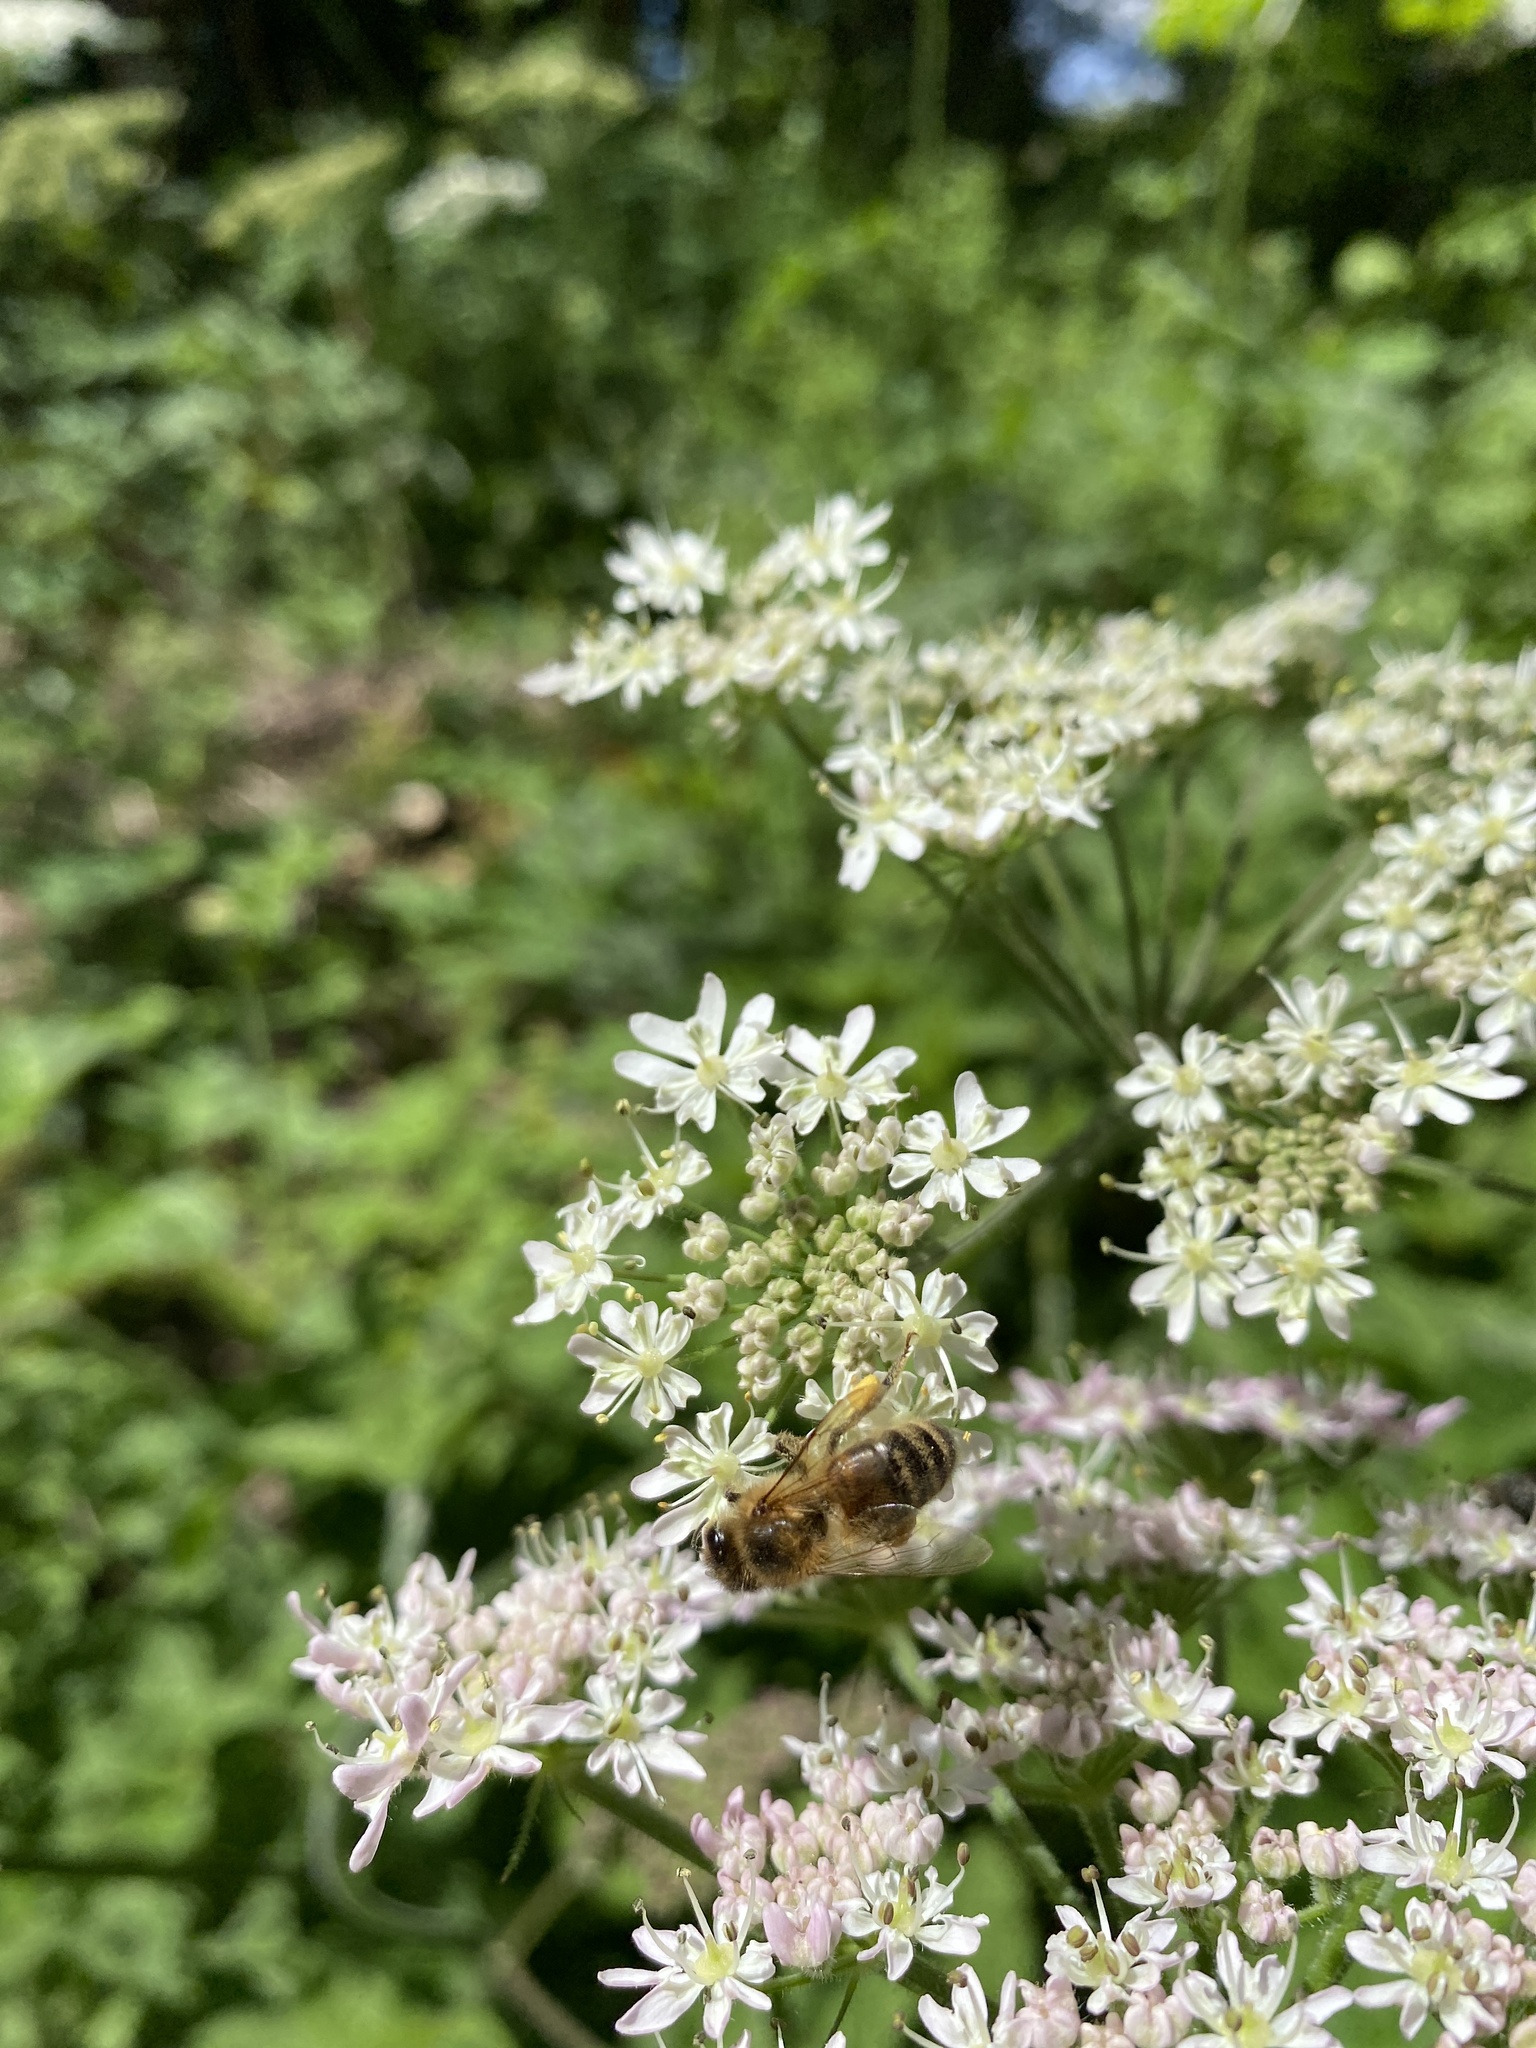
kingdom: Animalia
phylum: Arthropoda
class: Insecta
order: Hymenoptera
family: Apidae
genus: Apis
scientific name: Apis mellifera
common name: Honey bee
